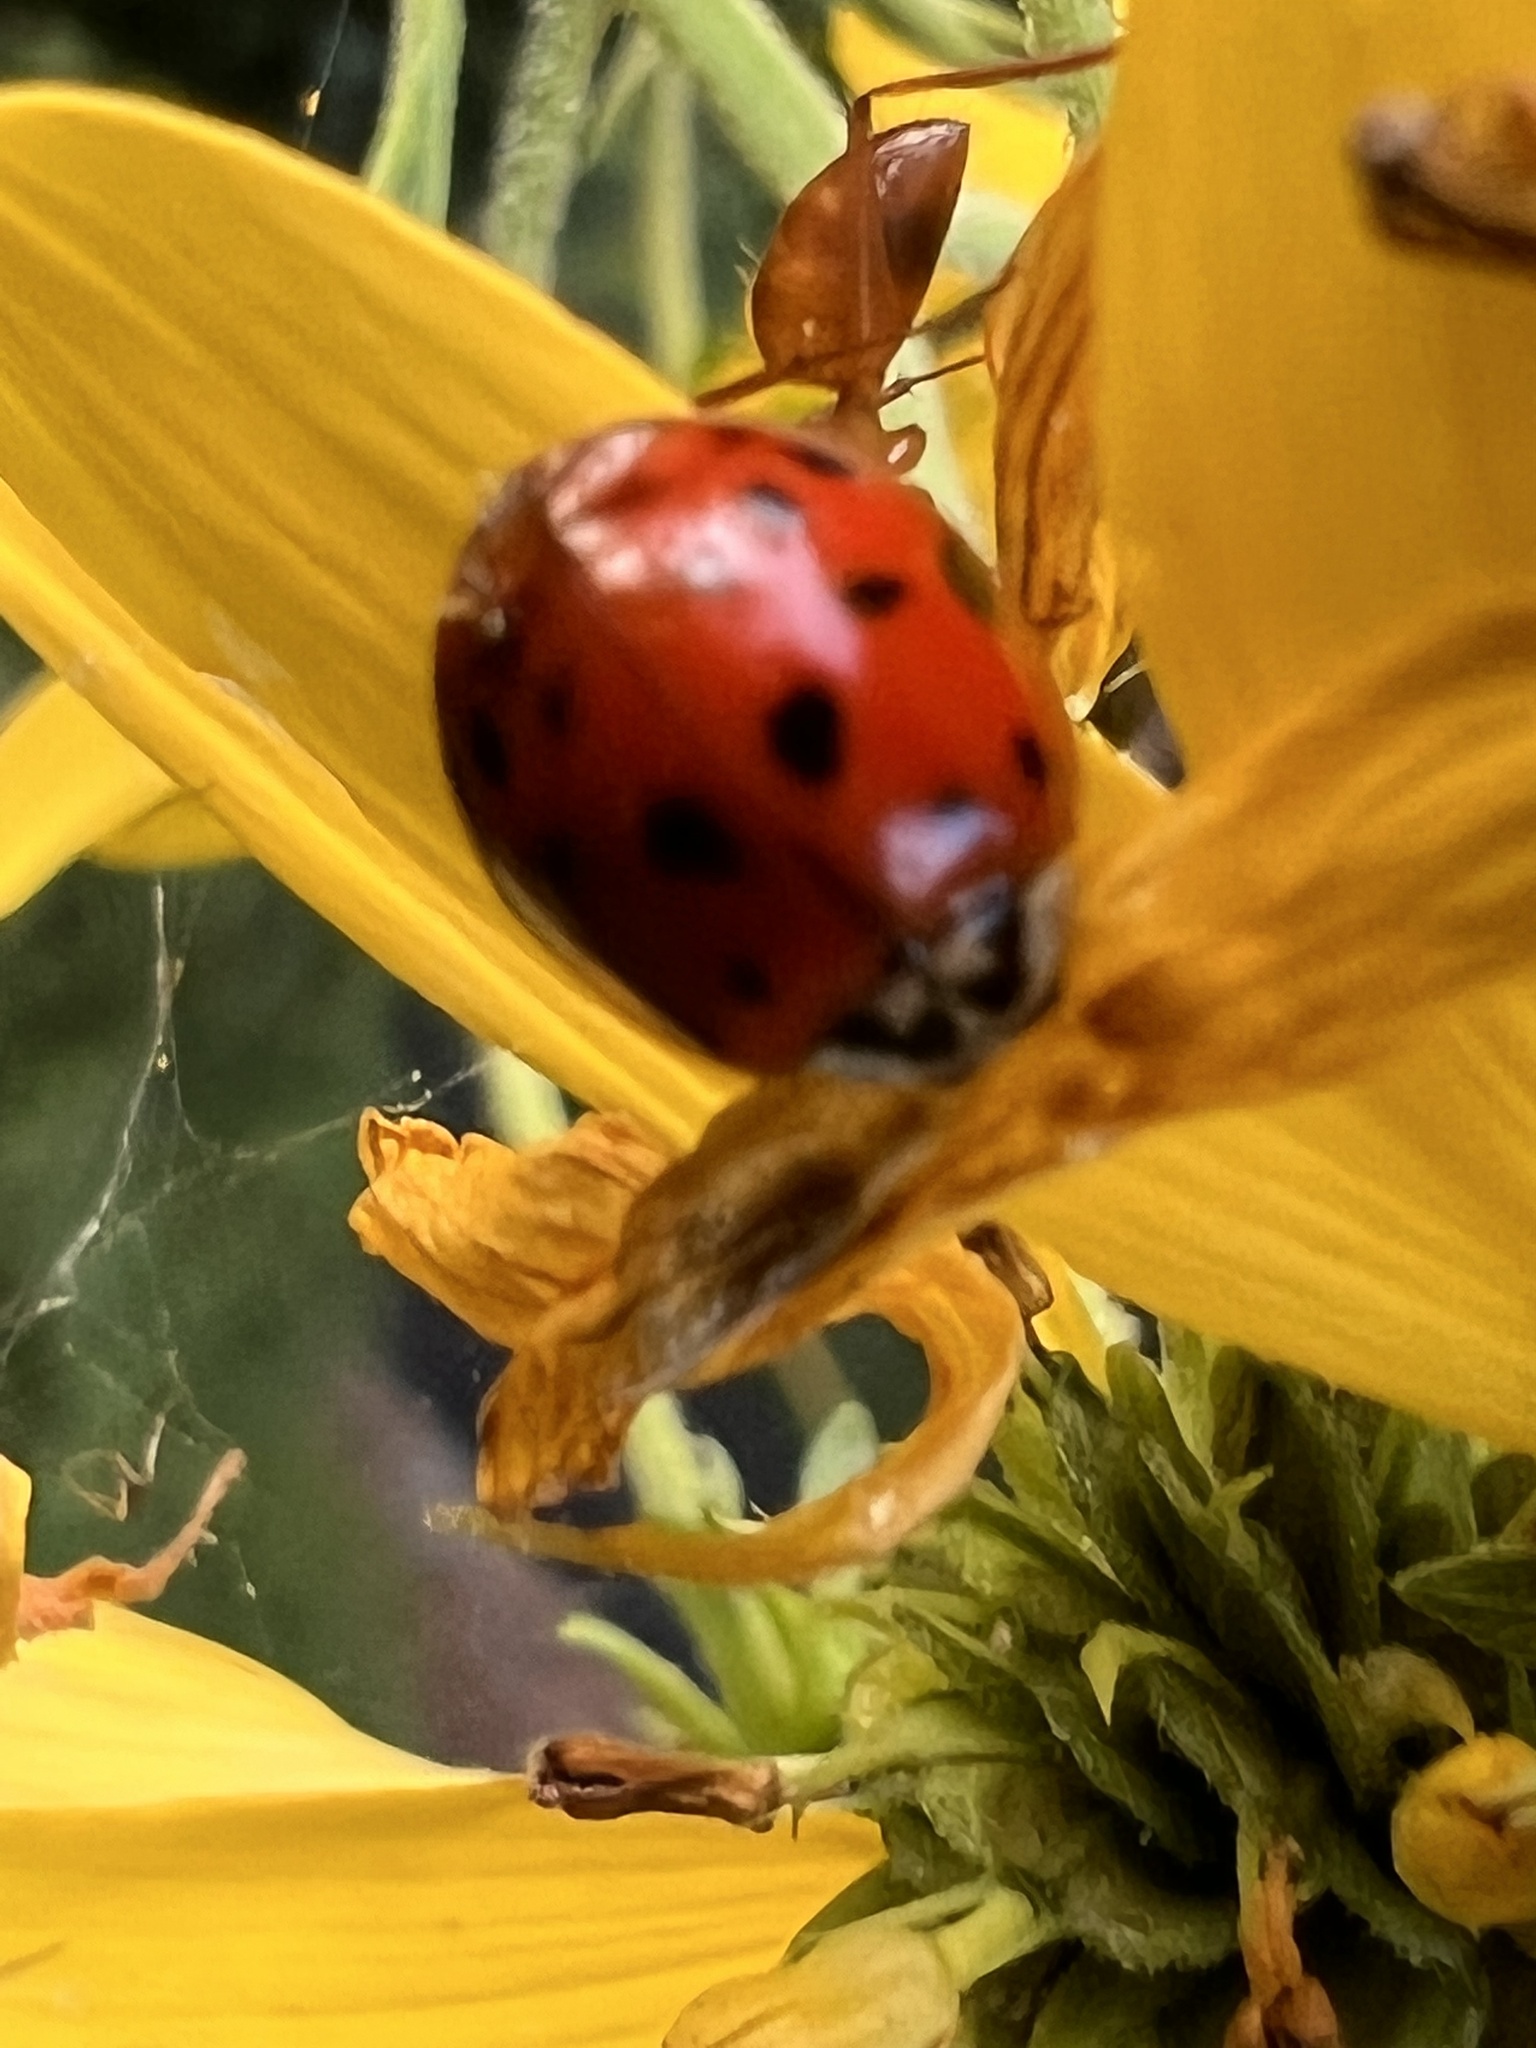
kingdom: Animalia
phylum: Arthropoda
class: Insecta
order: Coleoptera
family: Coccinellidae
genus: Harmonia
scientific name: Harmonia axyridis
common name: Harlequin ladybird
